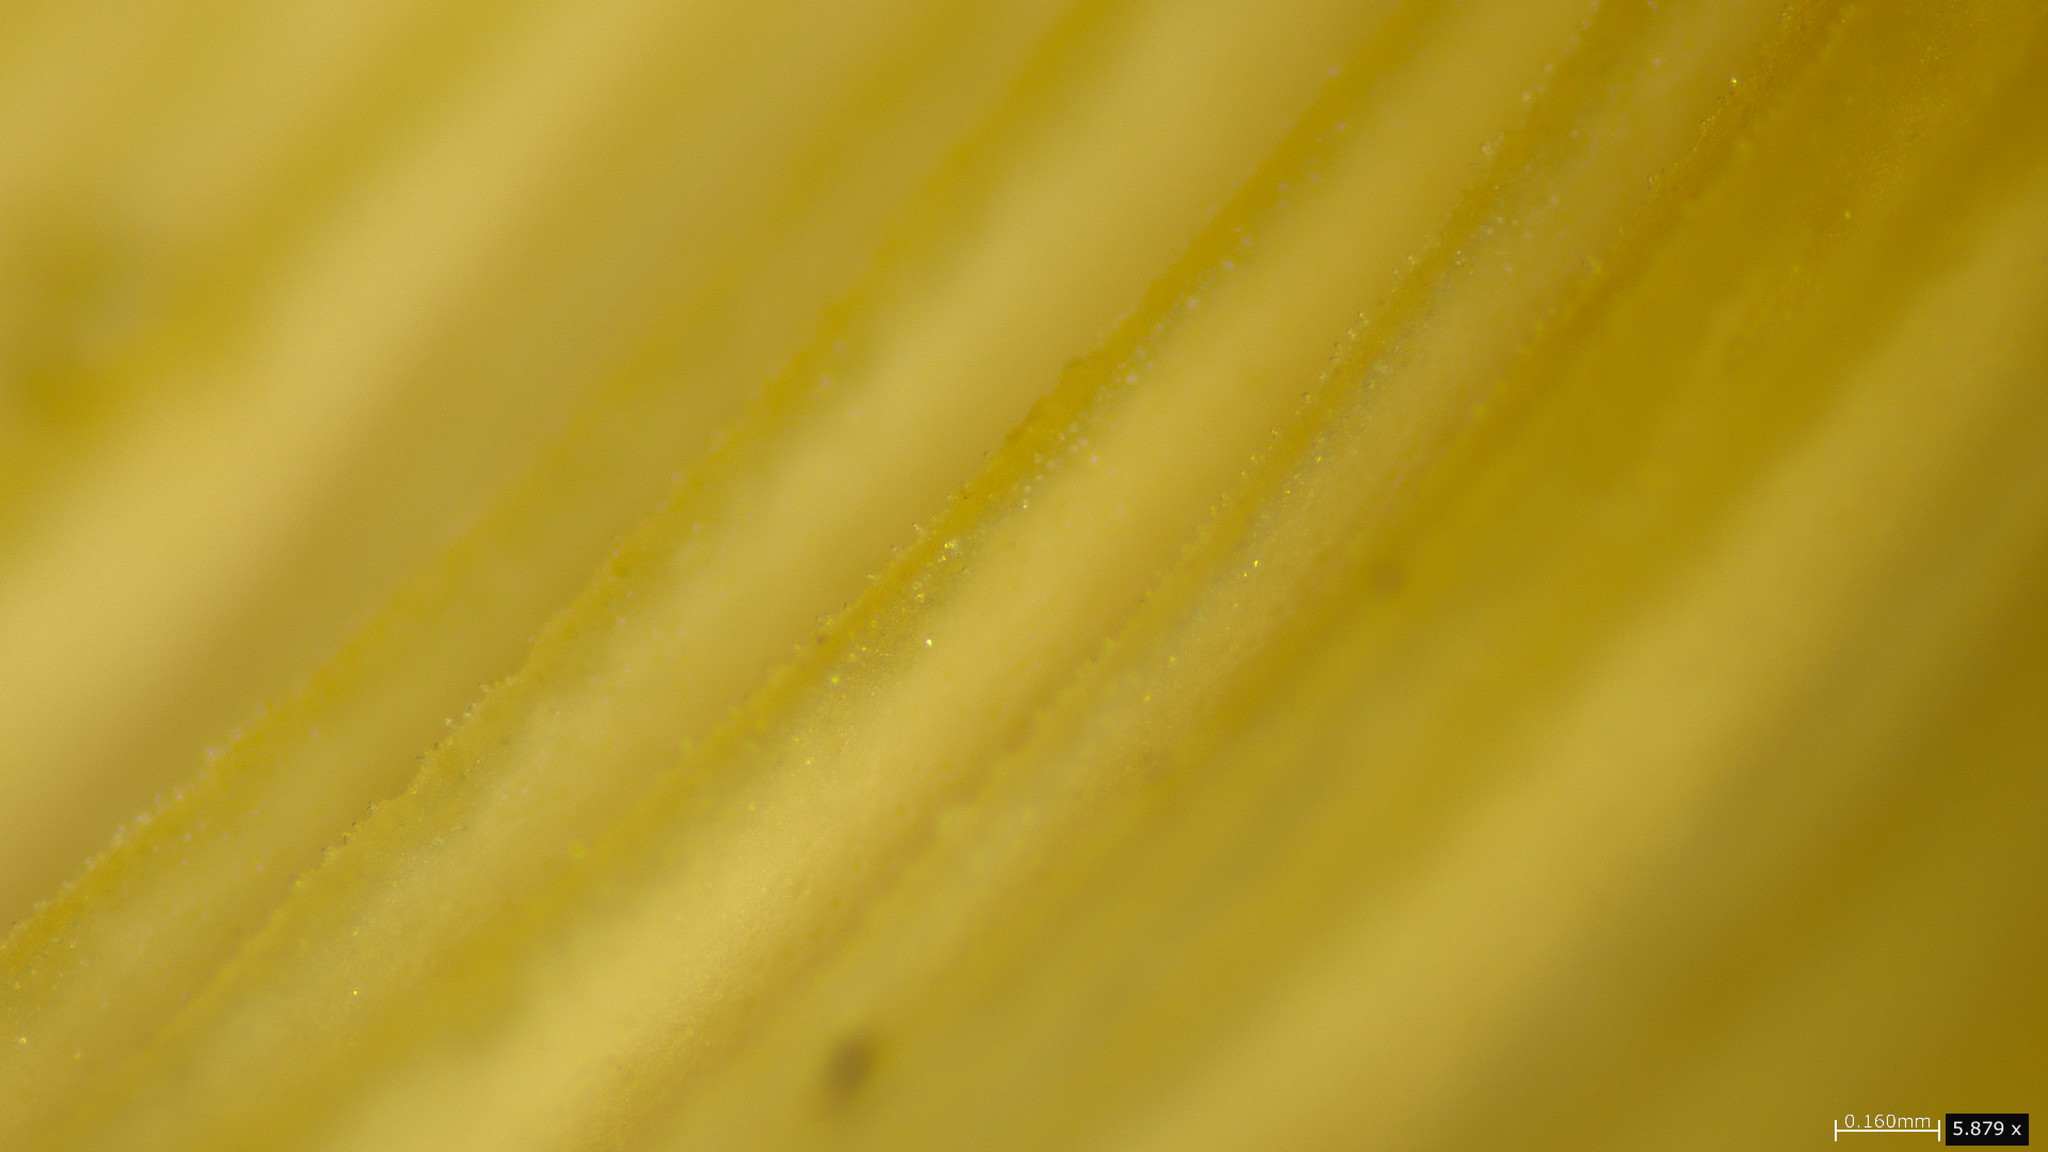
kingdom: Fungi
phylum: Basidiomycota
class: Agaricomycetes
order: Polyporales
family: Panaceae
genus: Panus
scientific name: Panus neostrigosus
